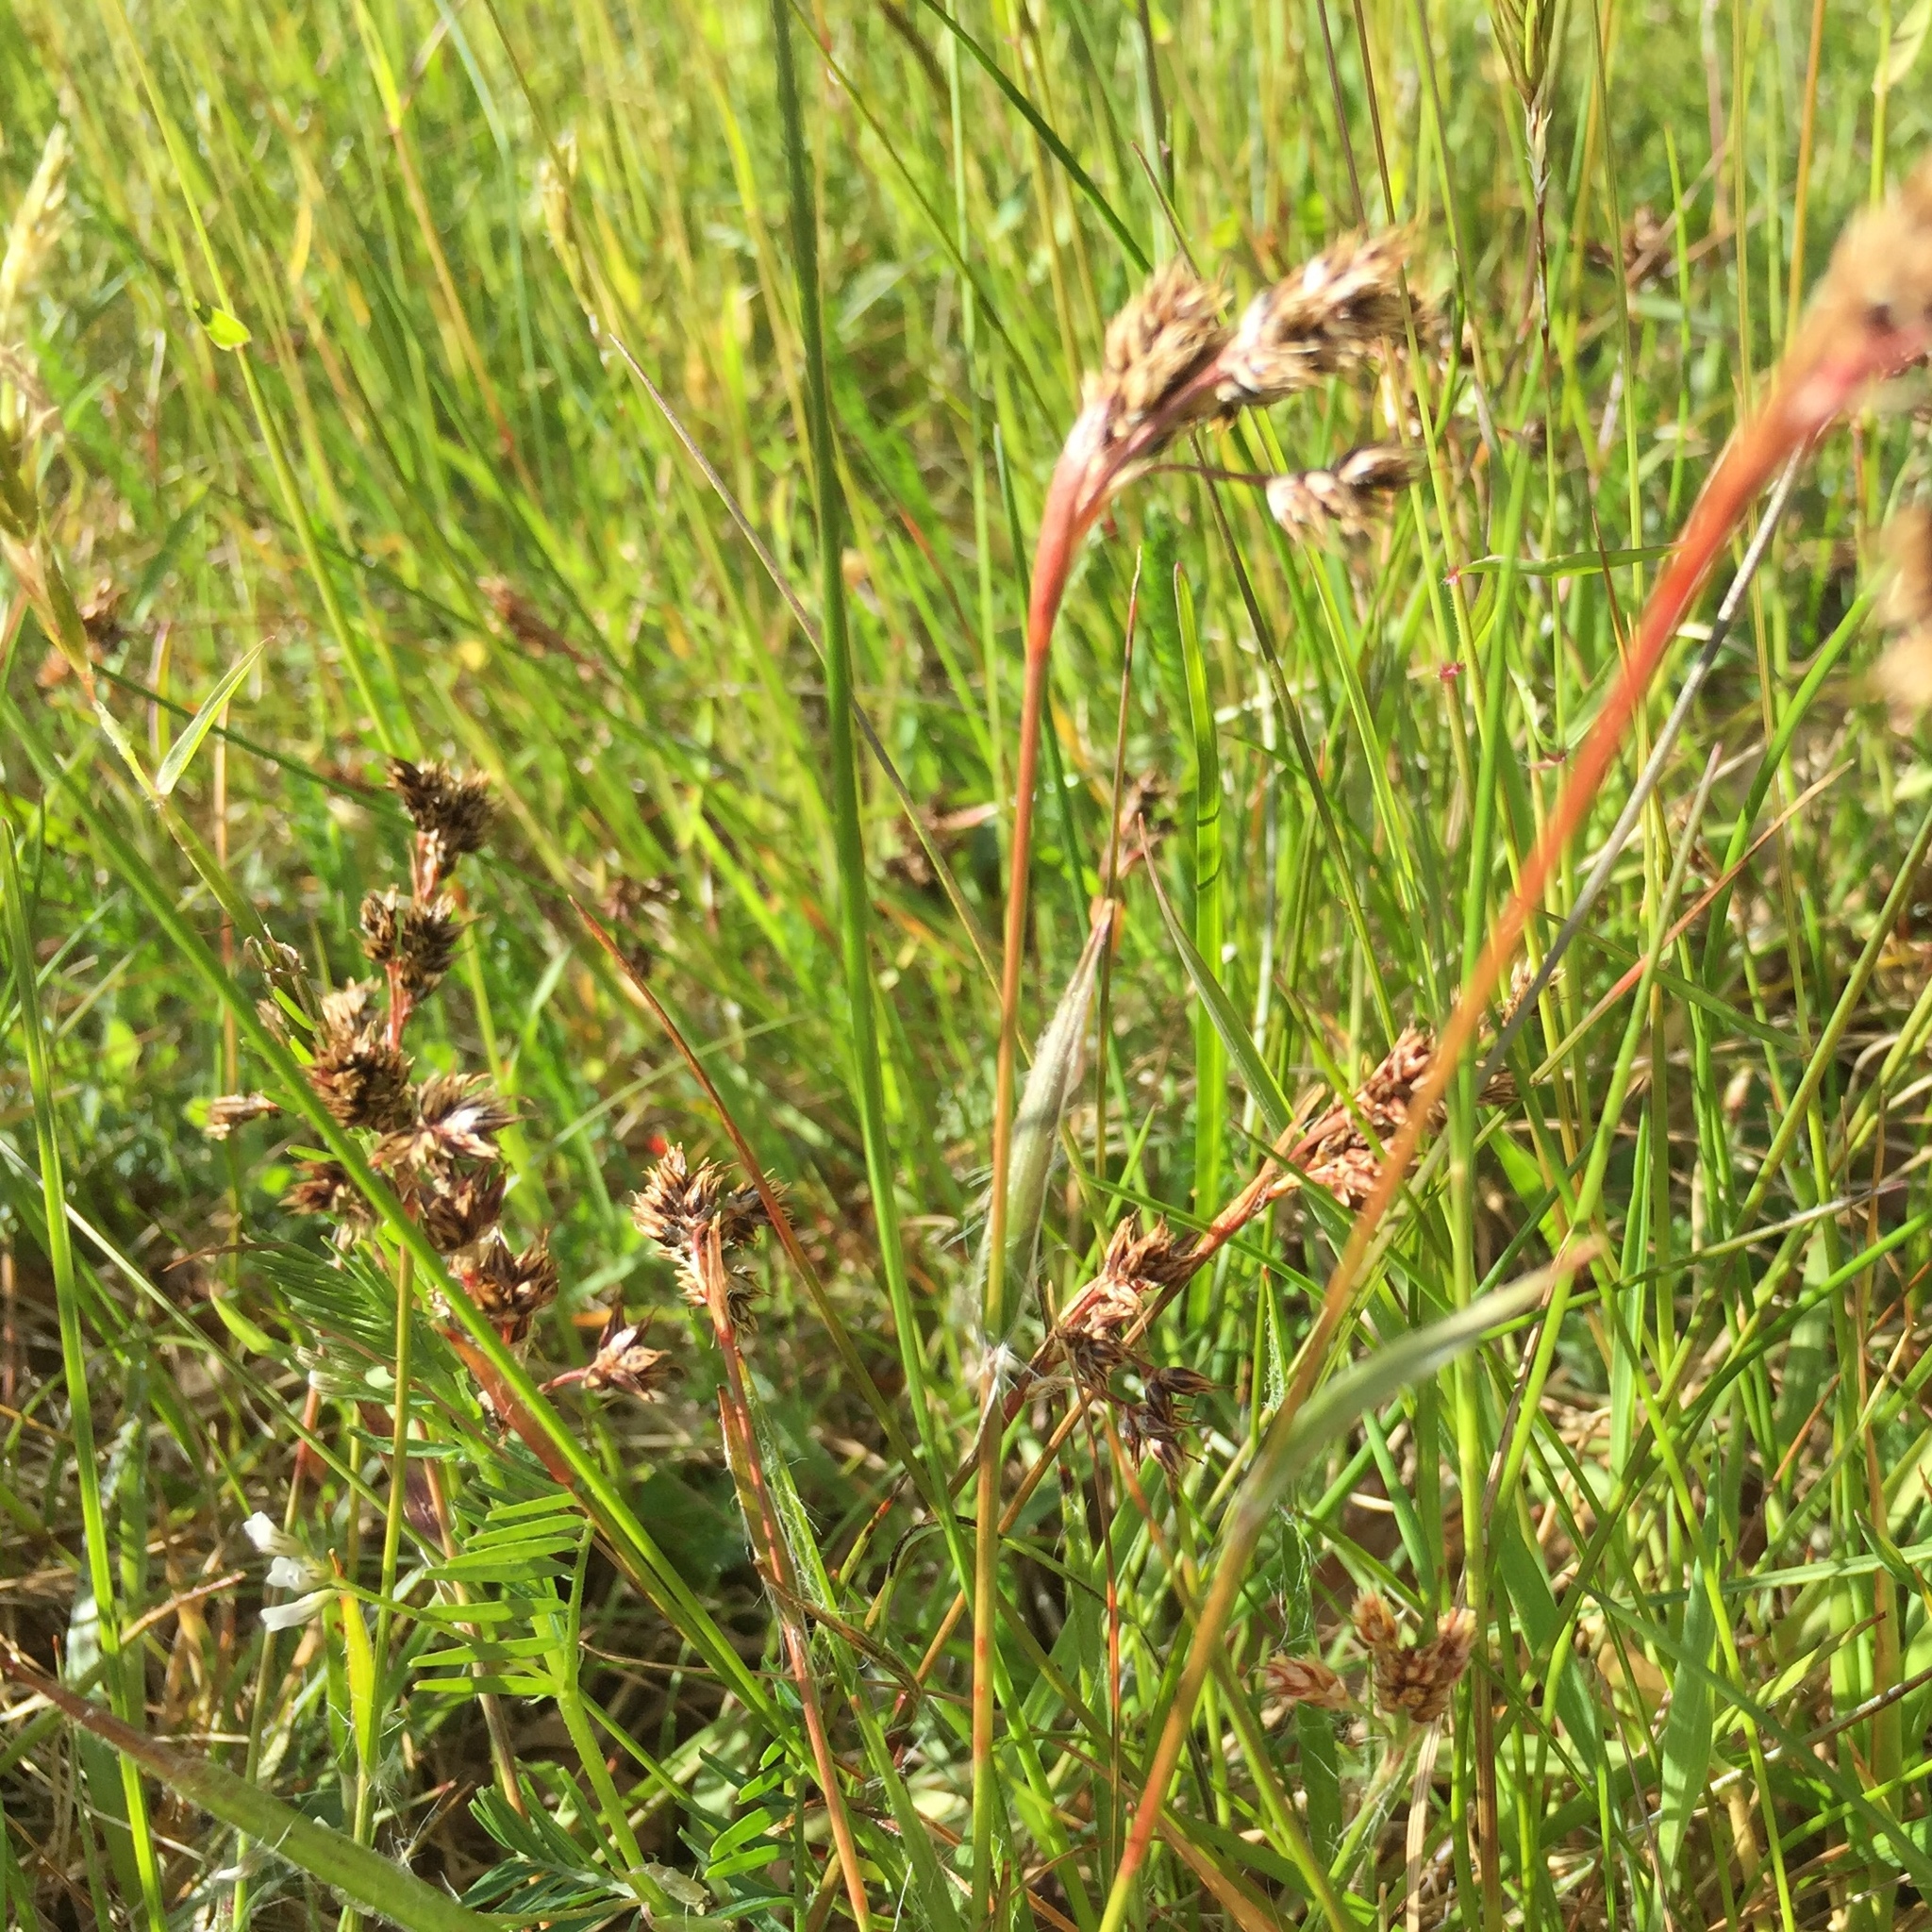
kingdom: Plantae
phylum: Tracheophyta
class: Liliopsida
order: Poales
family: Juncaceae
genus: Luzula
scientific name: Luzula campestris
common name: Field wood-rush
